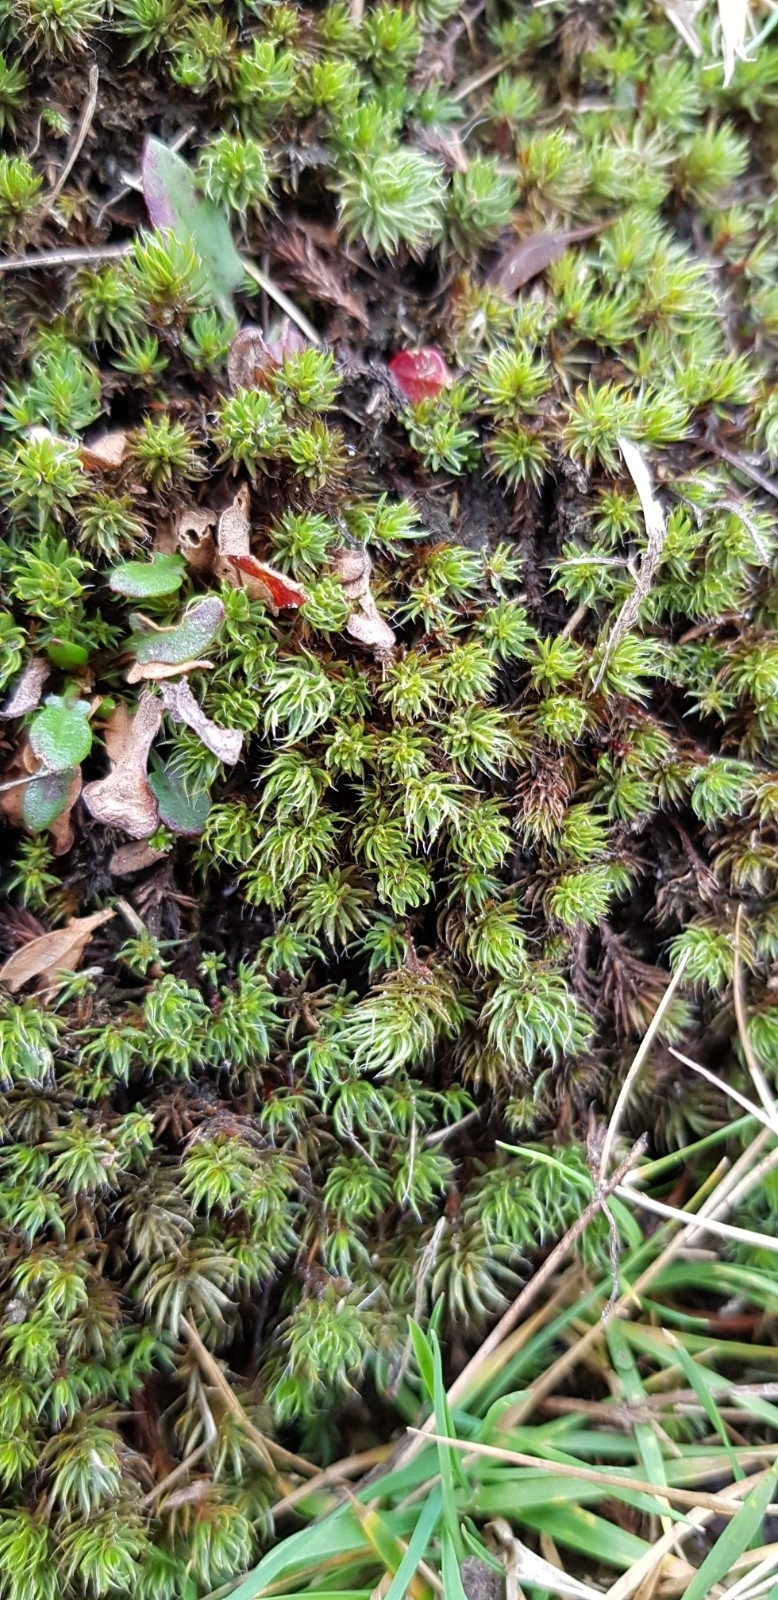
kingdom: Plantae
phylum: Bryophyta
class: Polytrichopsida
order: Polytrichales
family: Polytrichaceae
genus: Polytrichum
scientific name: Polytrichum piliferum
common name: Bristly haircap
